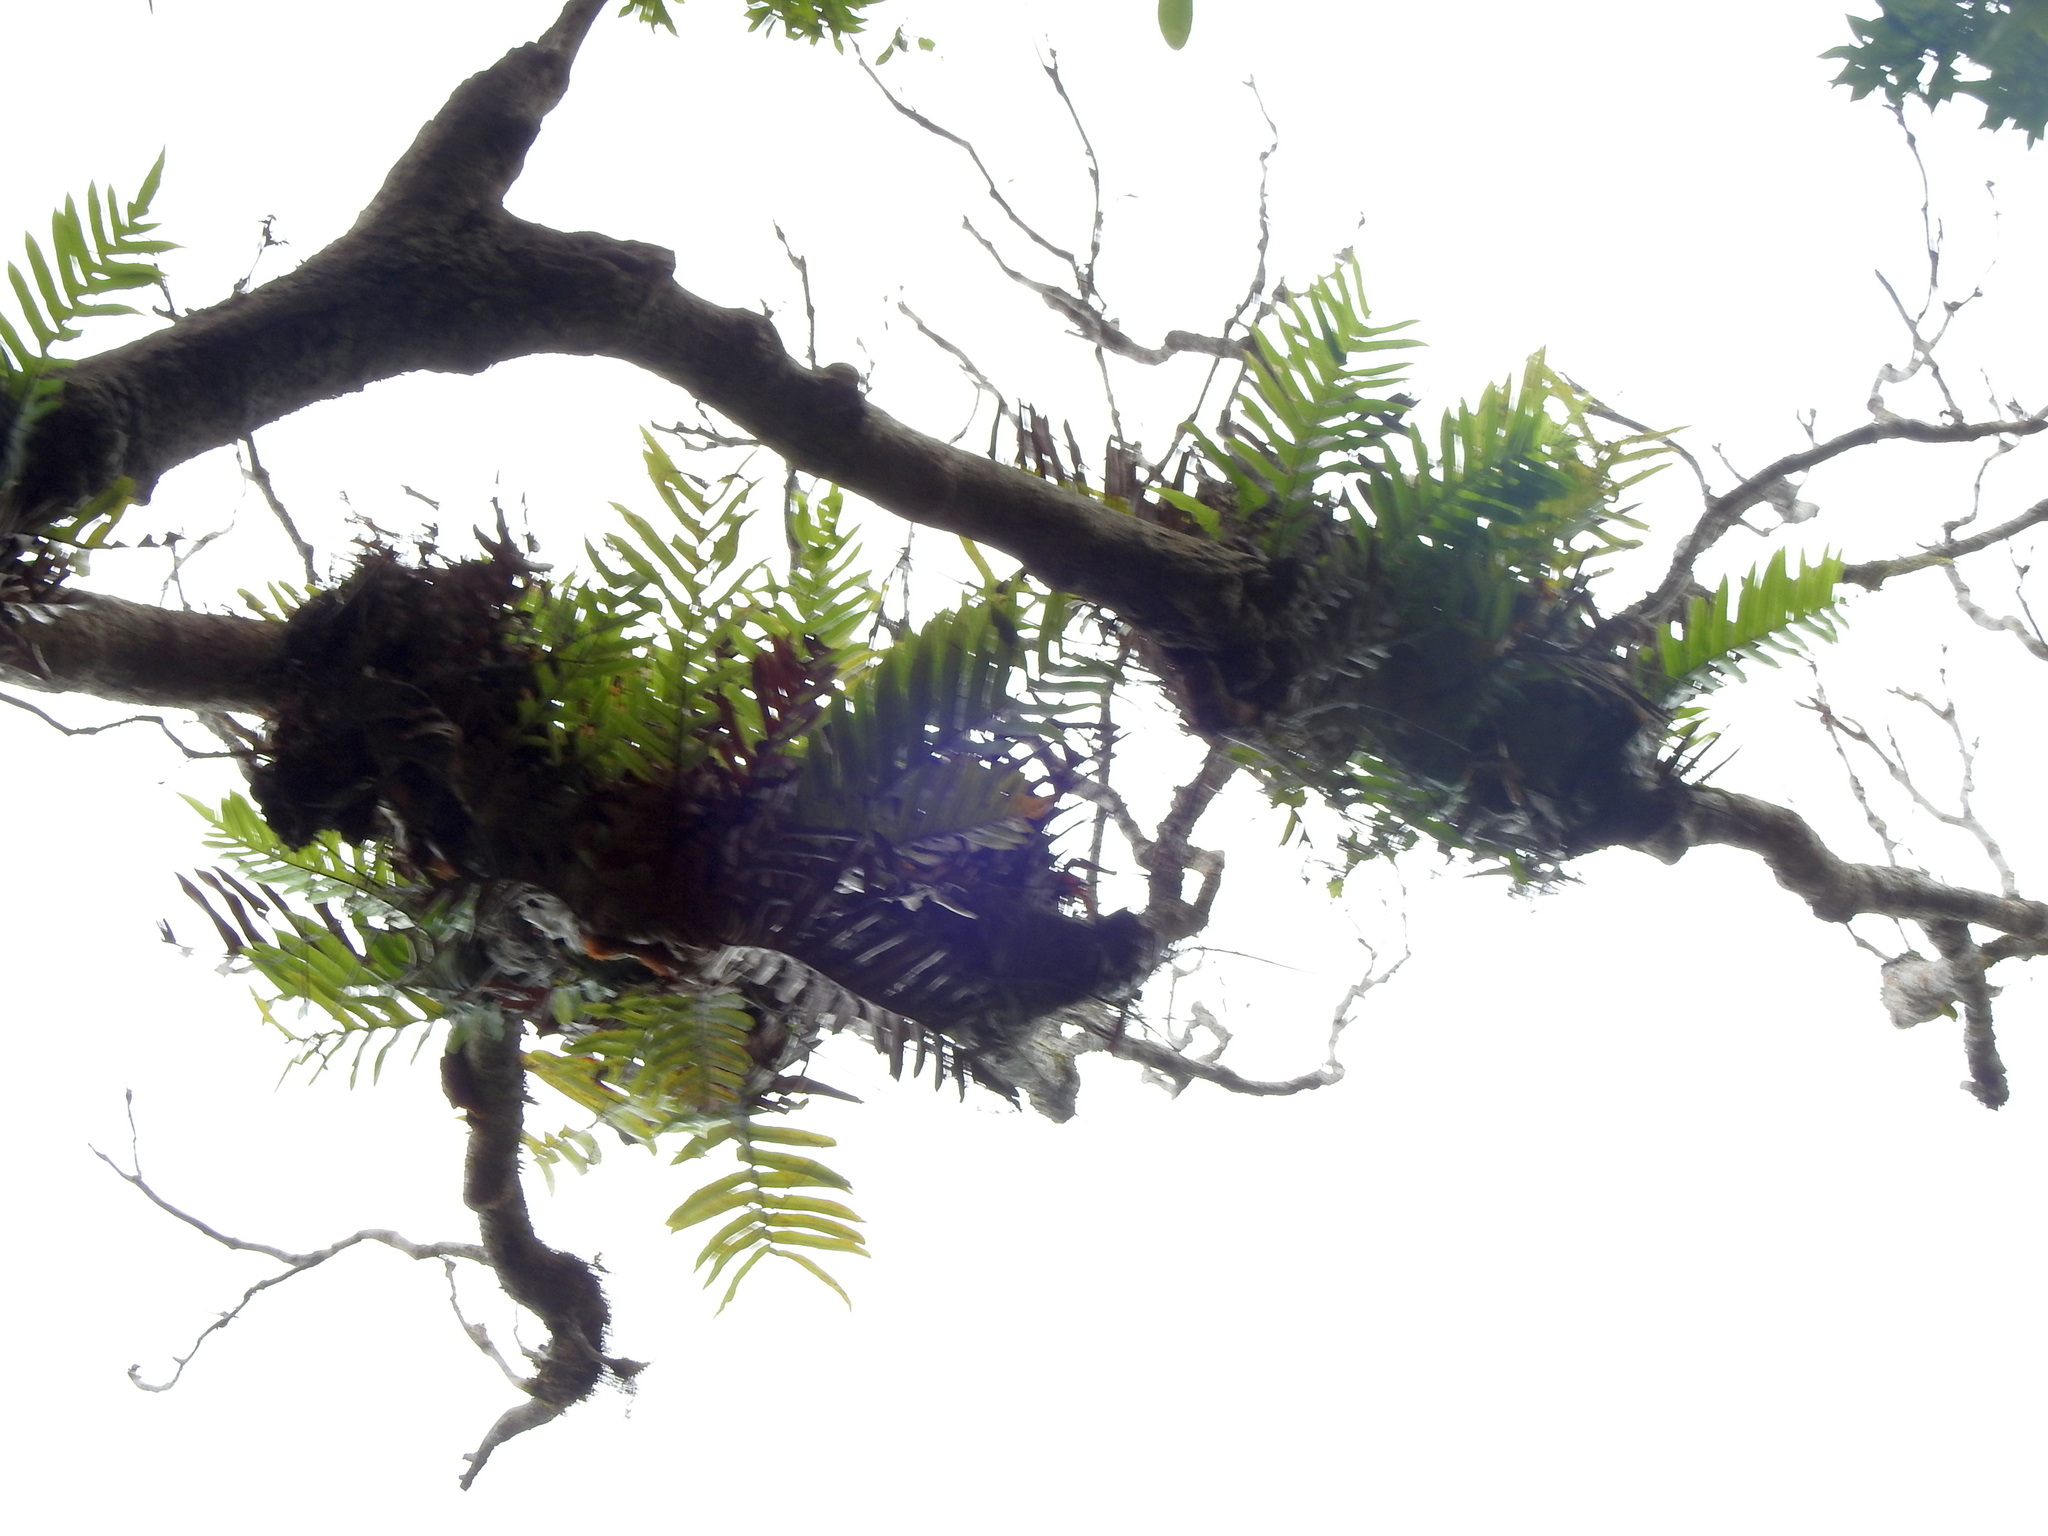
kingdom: Plantae
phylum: Tracheophyta
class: Polypodiopsida
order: Polypodiales
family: Polypodiaceae
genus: Drynaria
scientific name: Drynaria meyeniana
